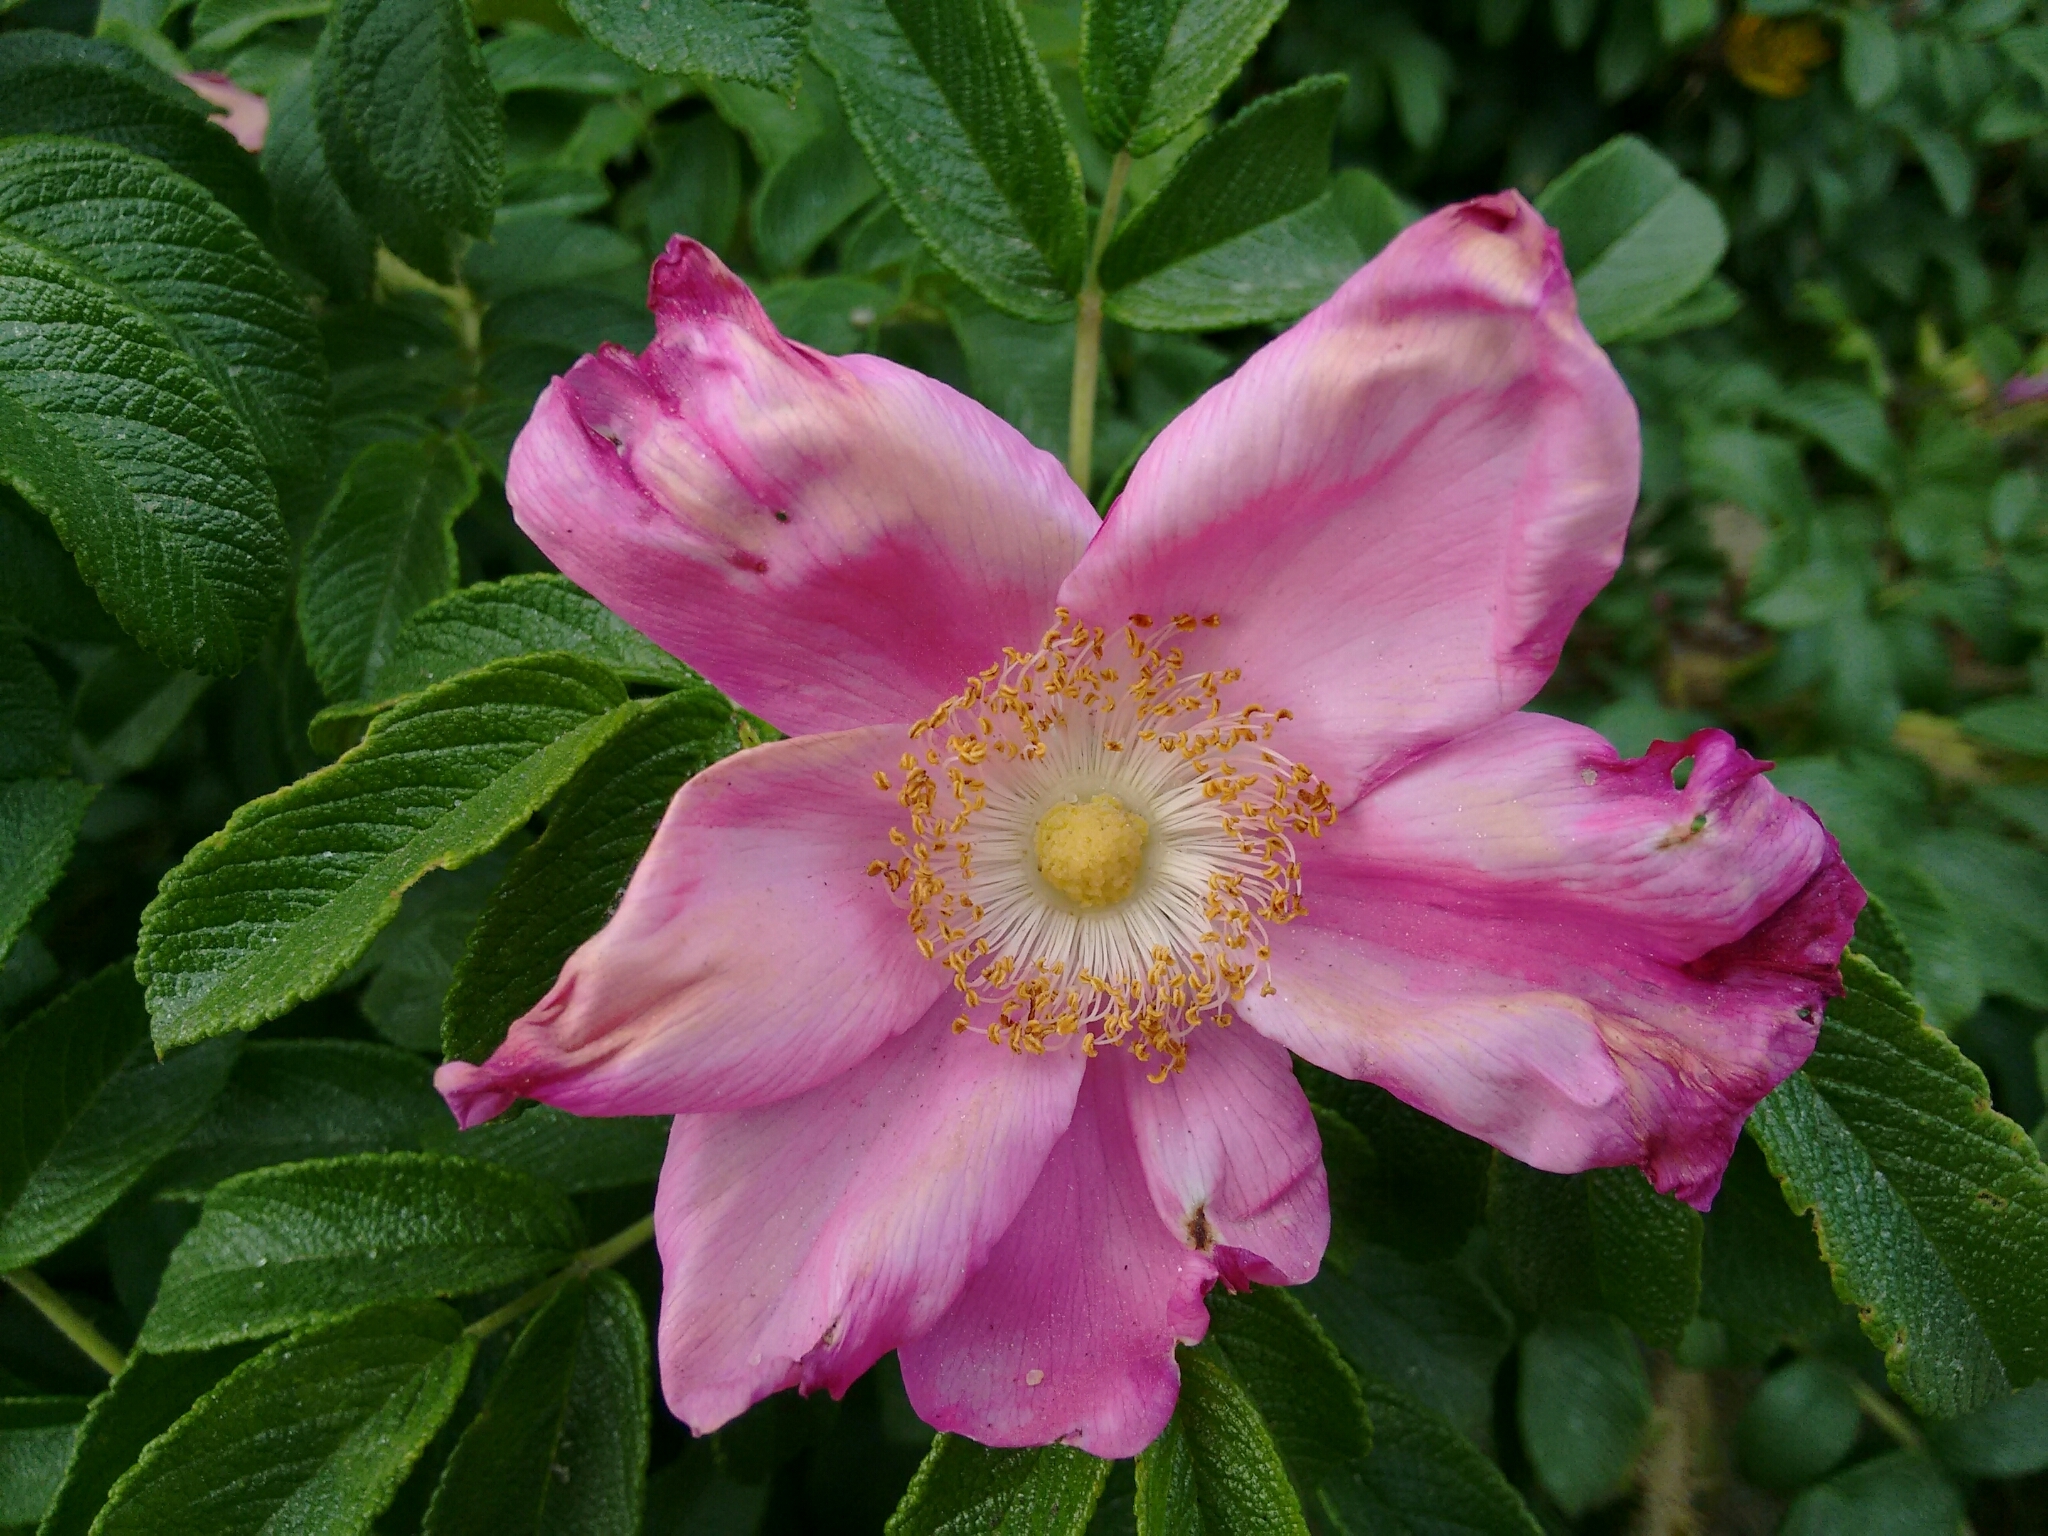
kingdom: Plantae
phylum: Tracheophyta
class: Magnoliopsida
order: Rosales
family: Rosaceae
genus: Rosa
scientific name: Rosa rugosa
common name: Japanese rose
